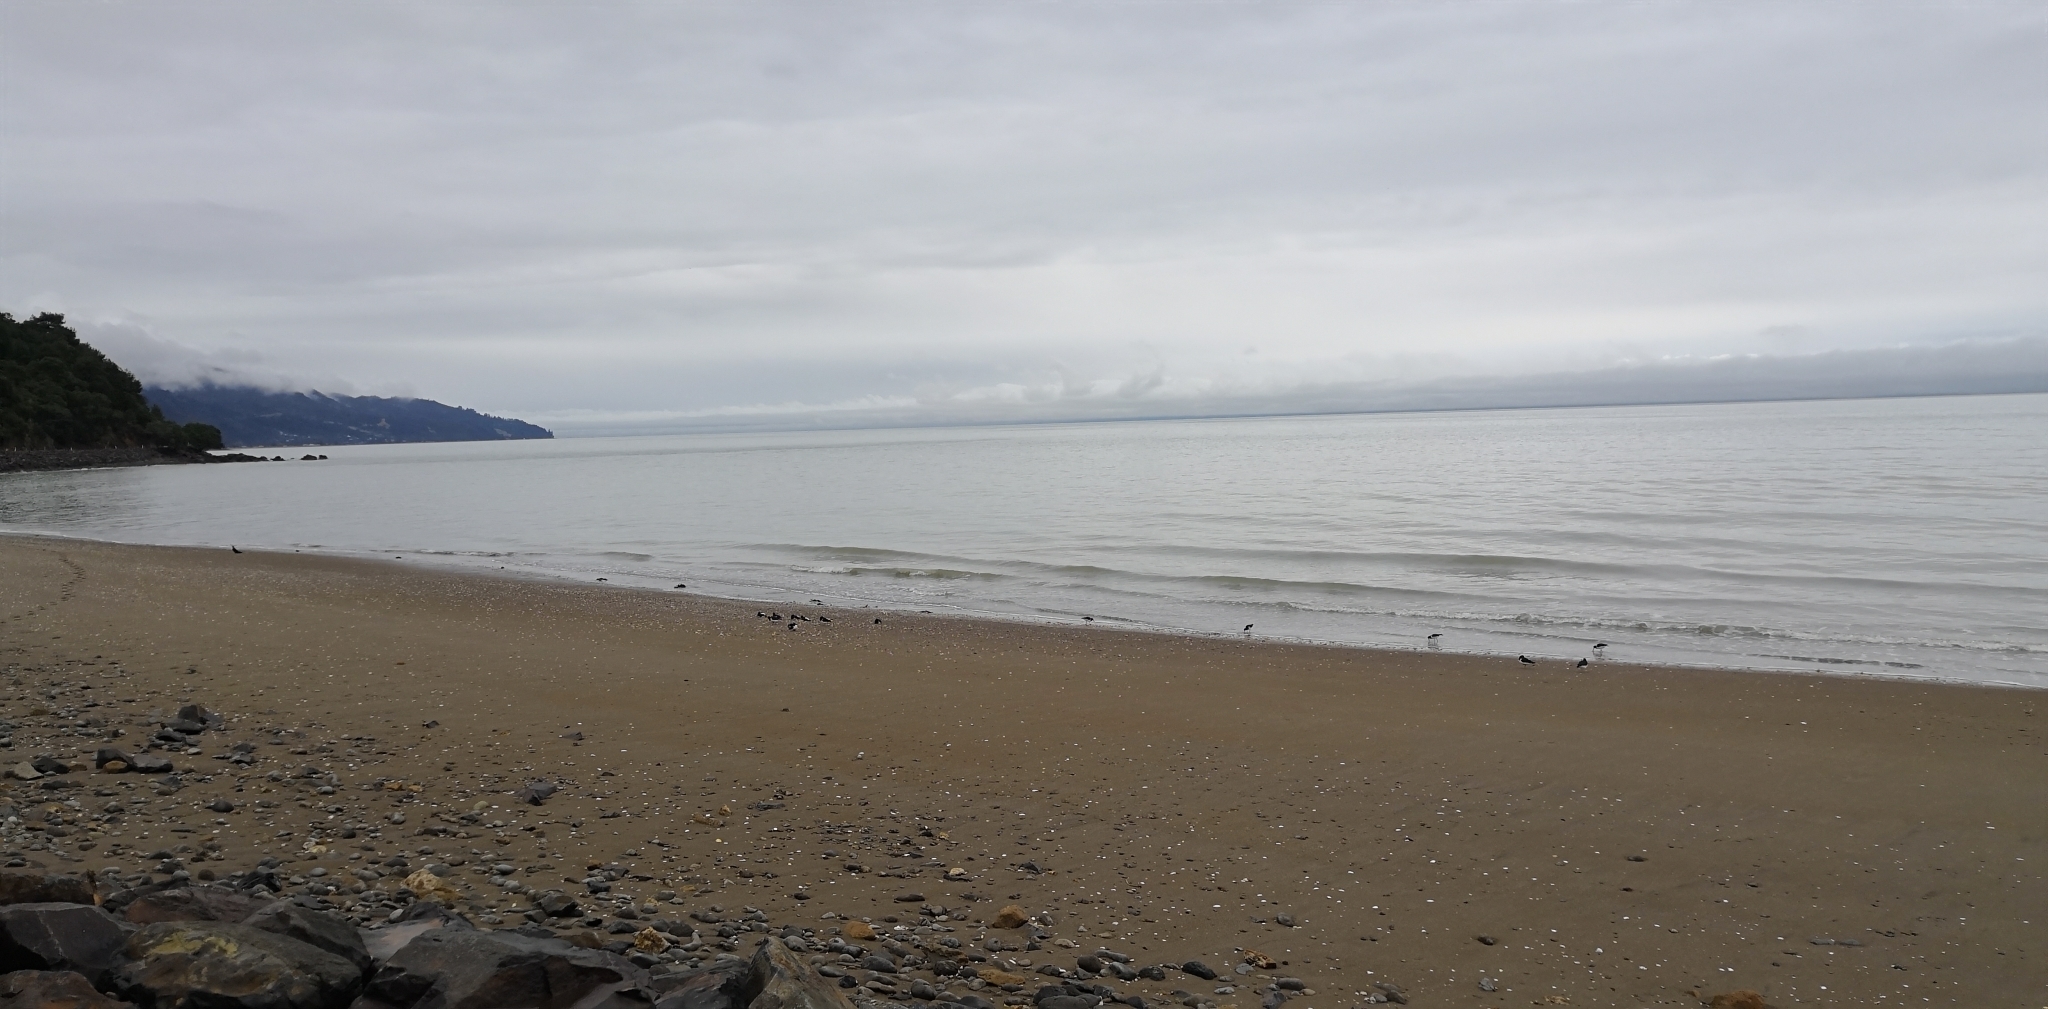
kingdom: Animalia
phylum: Chordata
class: Aves
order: Charadriiformes
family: Haematopodidae
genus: Haematopus
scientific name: Haematopus finschi
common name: South island oystercatcher
